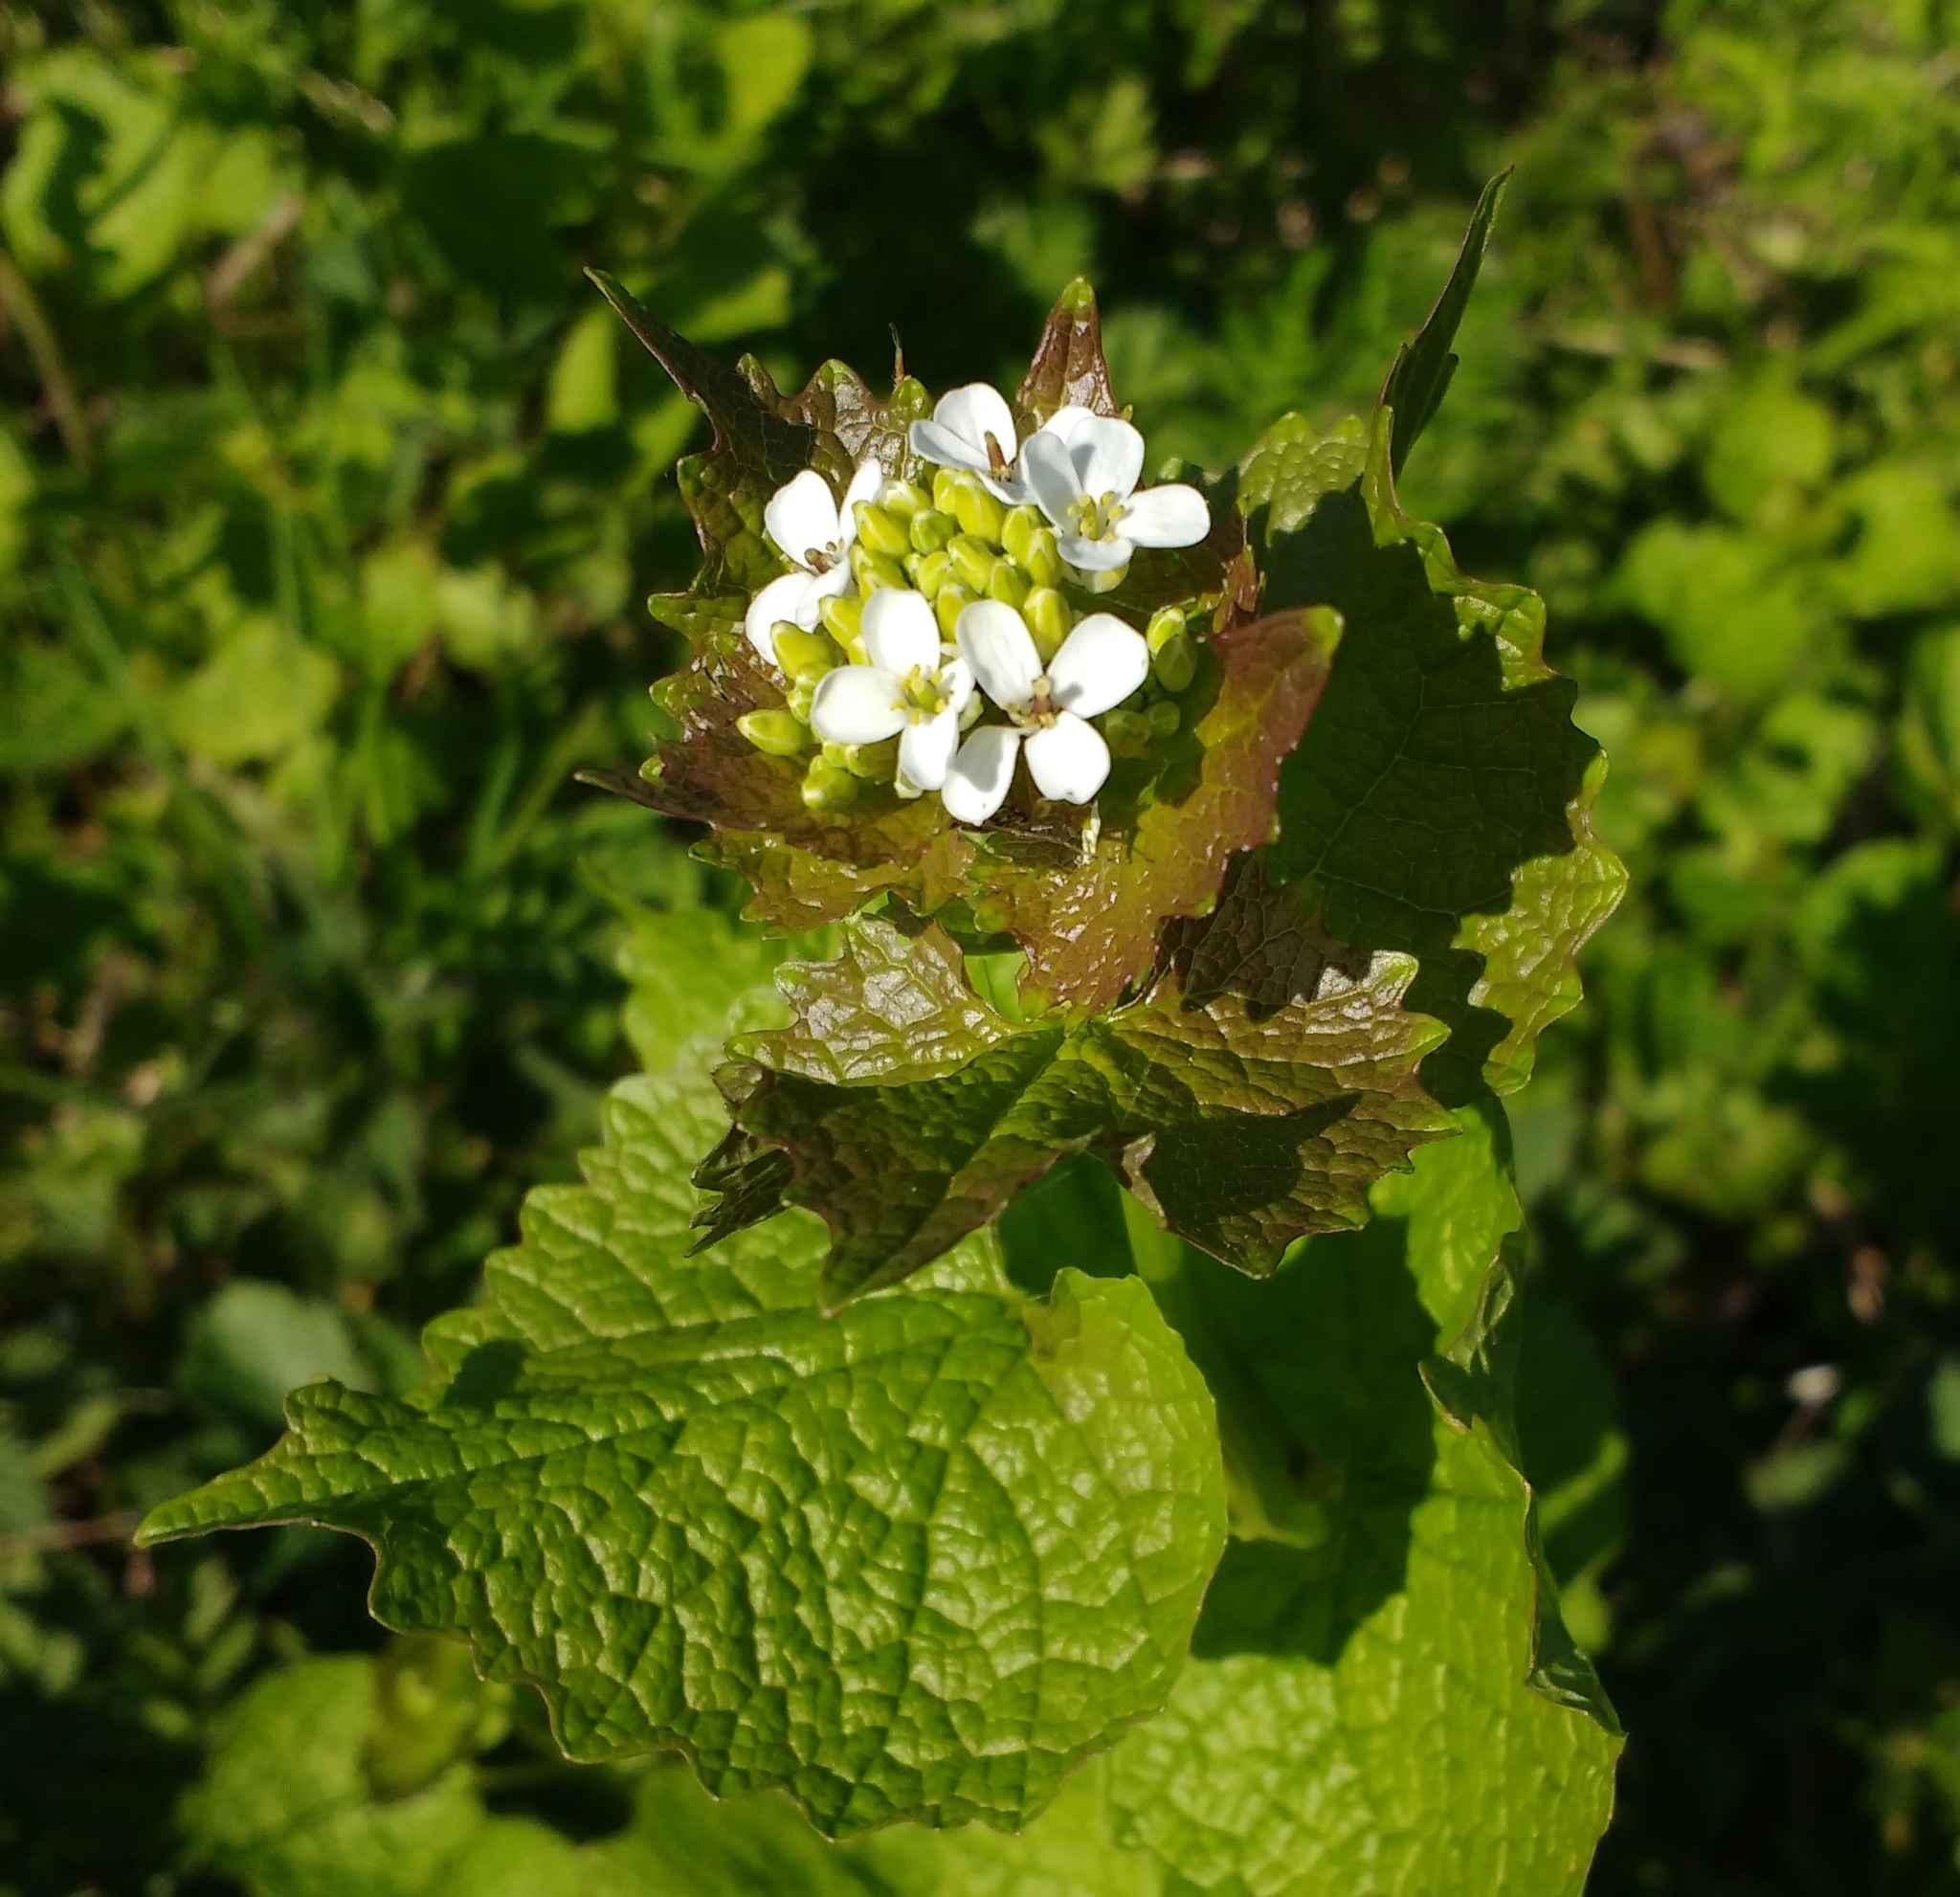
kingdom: Plantae
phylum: Tracheophyta
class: Magnoliopsida
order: Brassicales
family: Brassicaceae
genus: Alliaria
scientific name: Alliaria petiolata
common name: Garlic mustard
